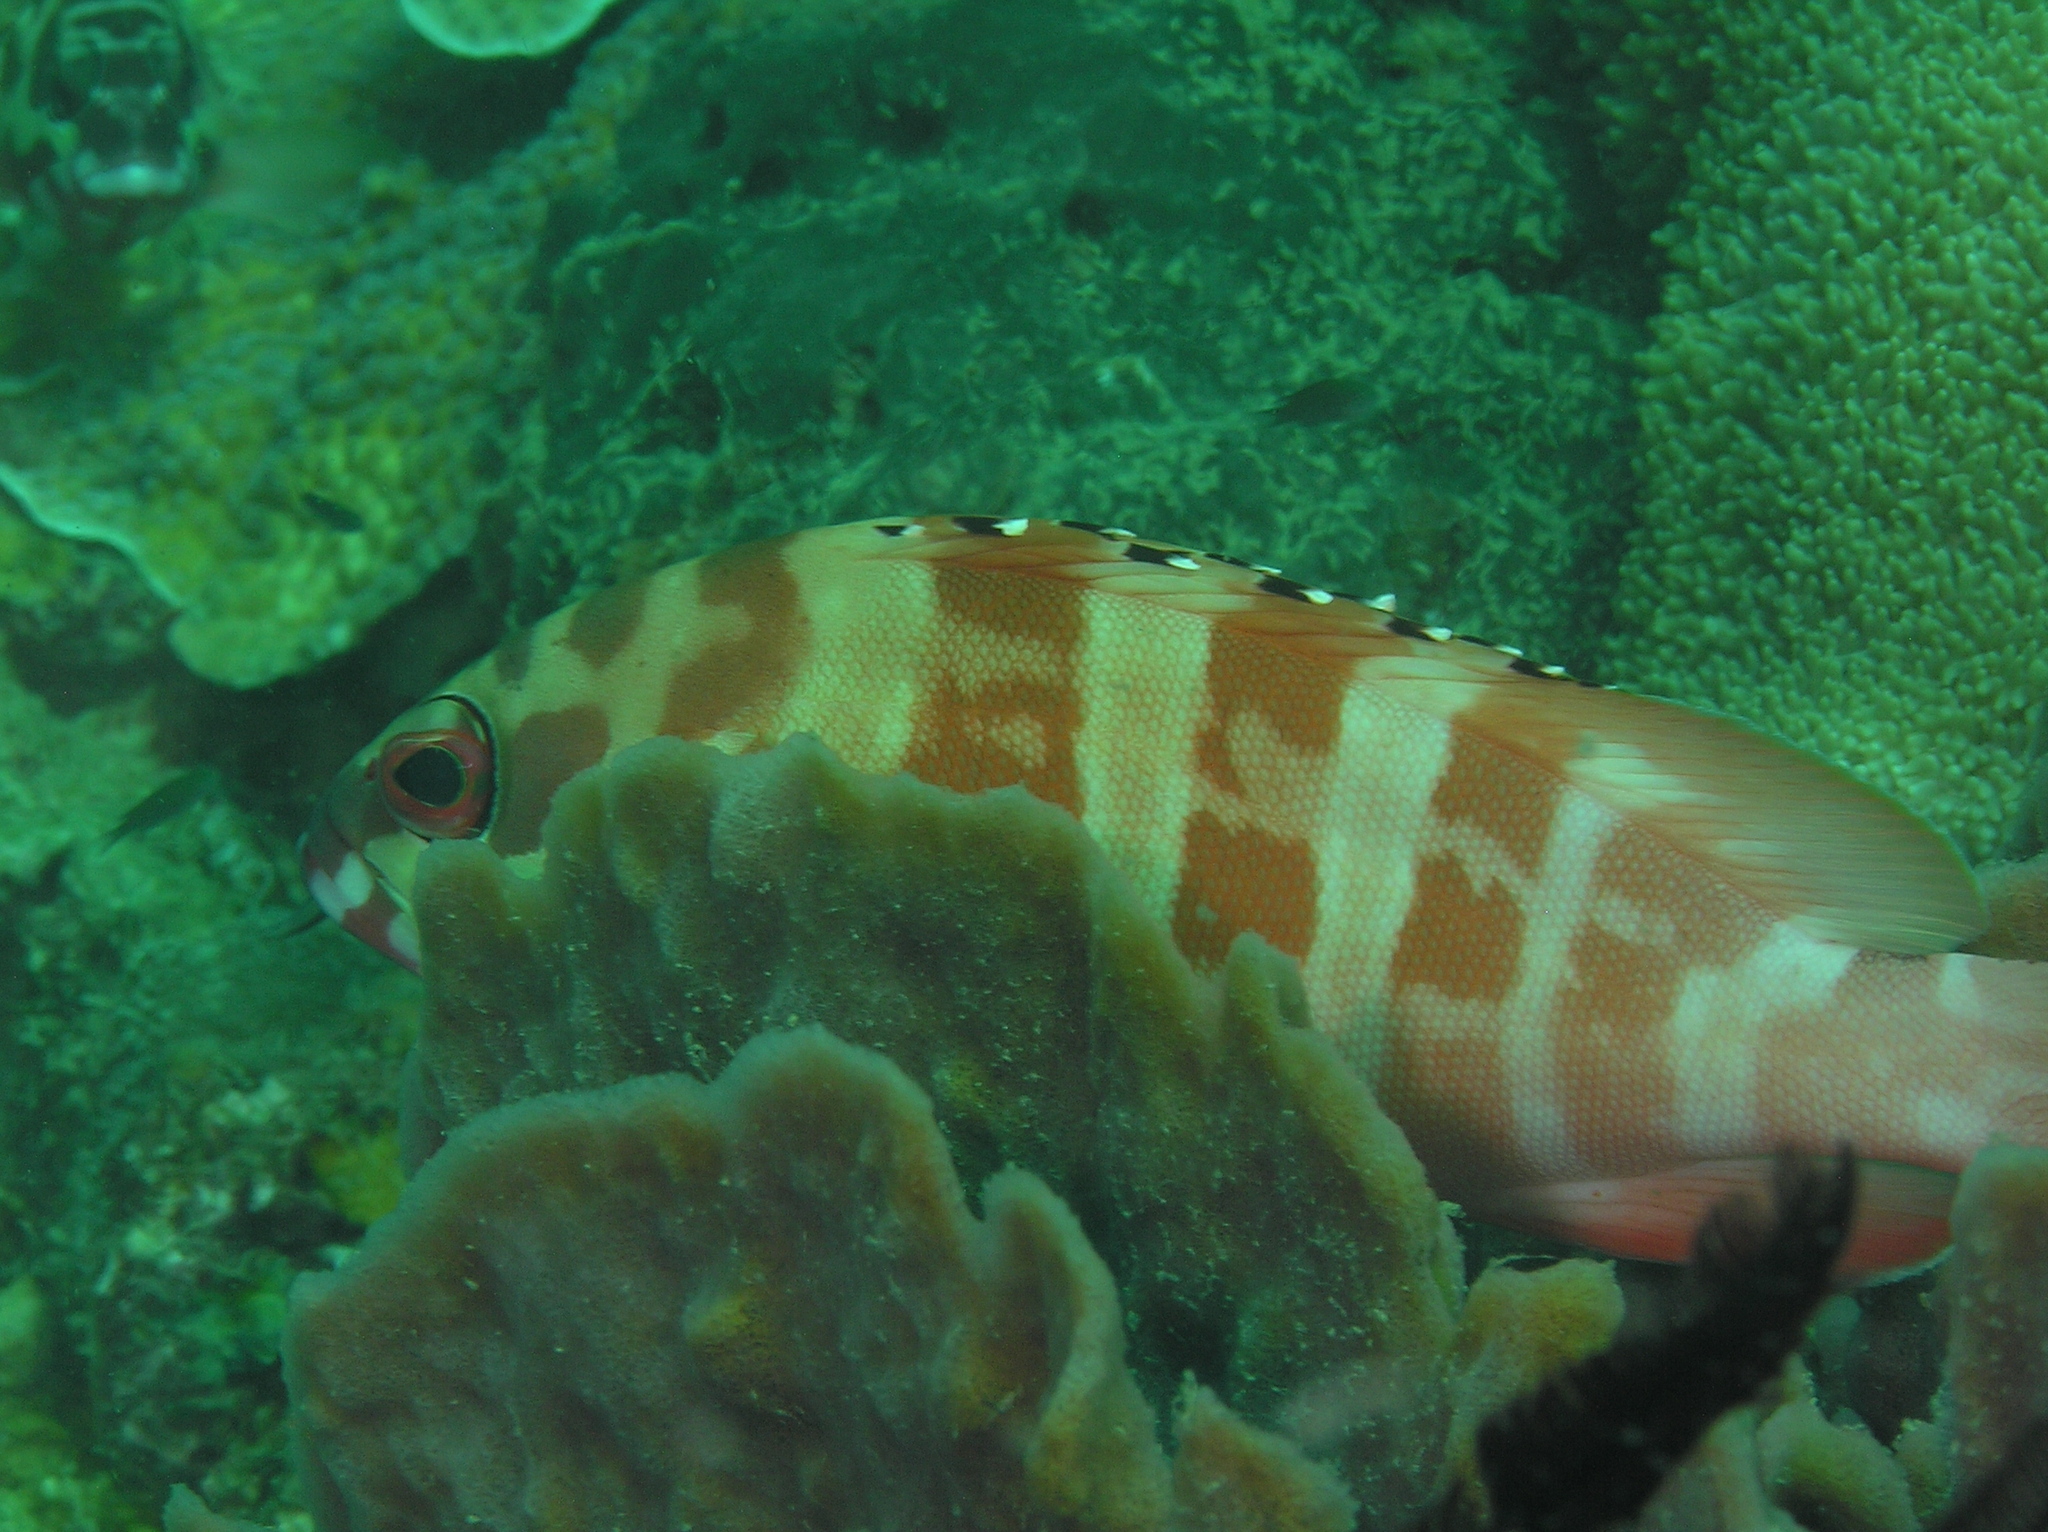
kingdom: Animalia
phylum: Chordata
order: Perciformes
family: Serranidae
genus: Epinephelus
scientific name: Epinephelus fasciatus
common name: Blacktip grouper
